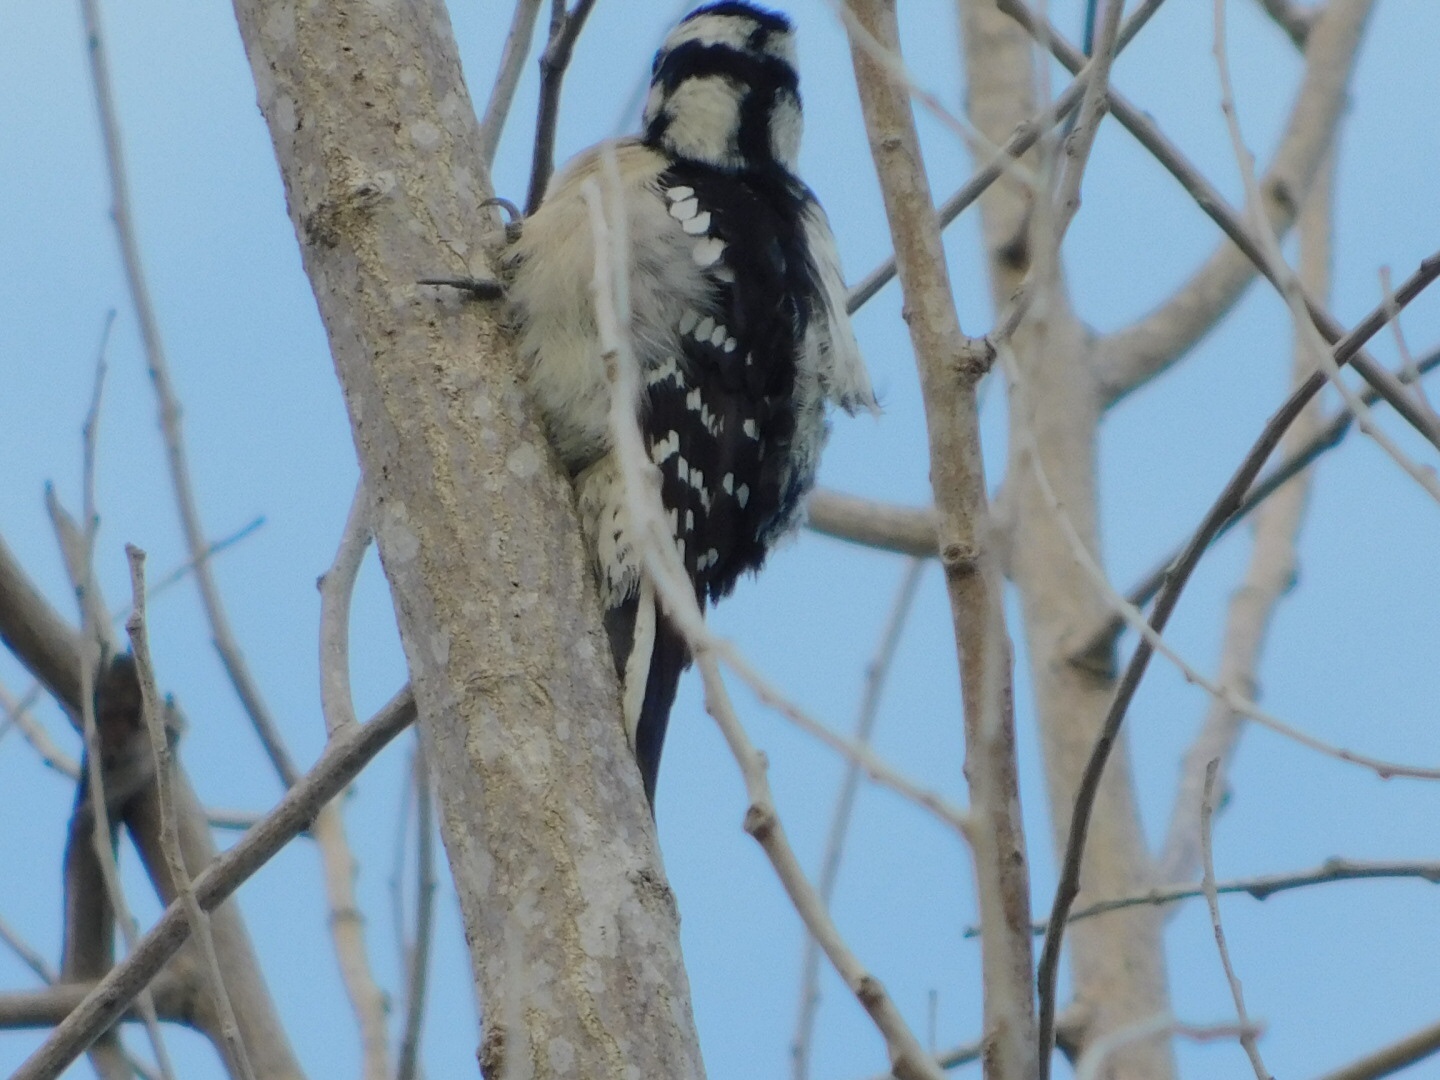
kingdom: Animalia
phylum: Chordata
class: Aves
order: Piciformes
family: Picidae
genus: Dryobates
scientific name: Dryobates pubescens
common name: Downy woodpecker
